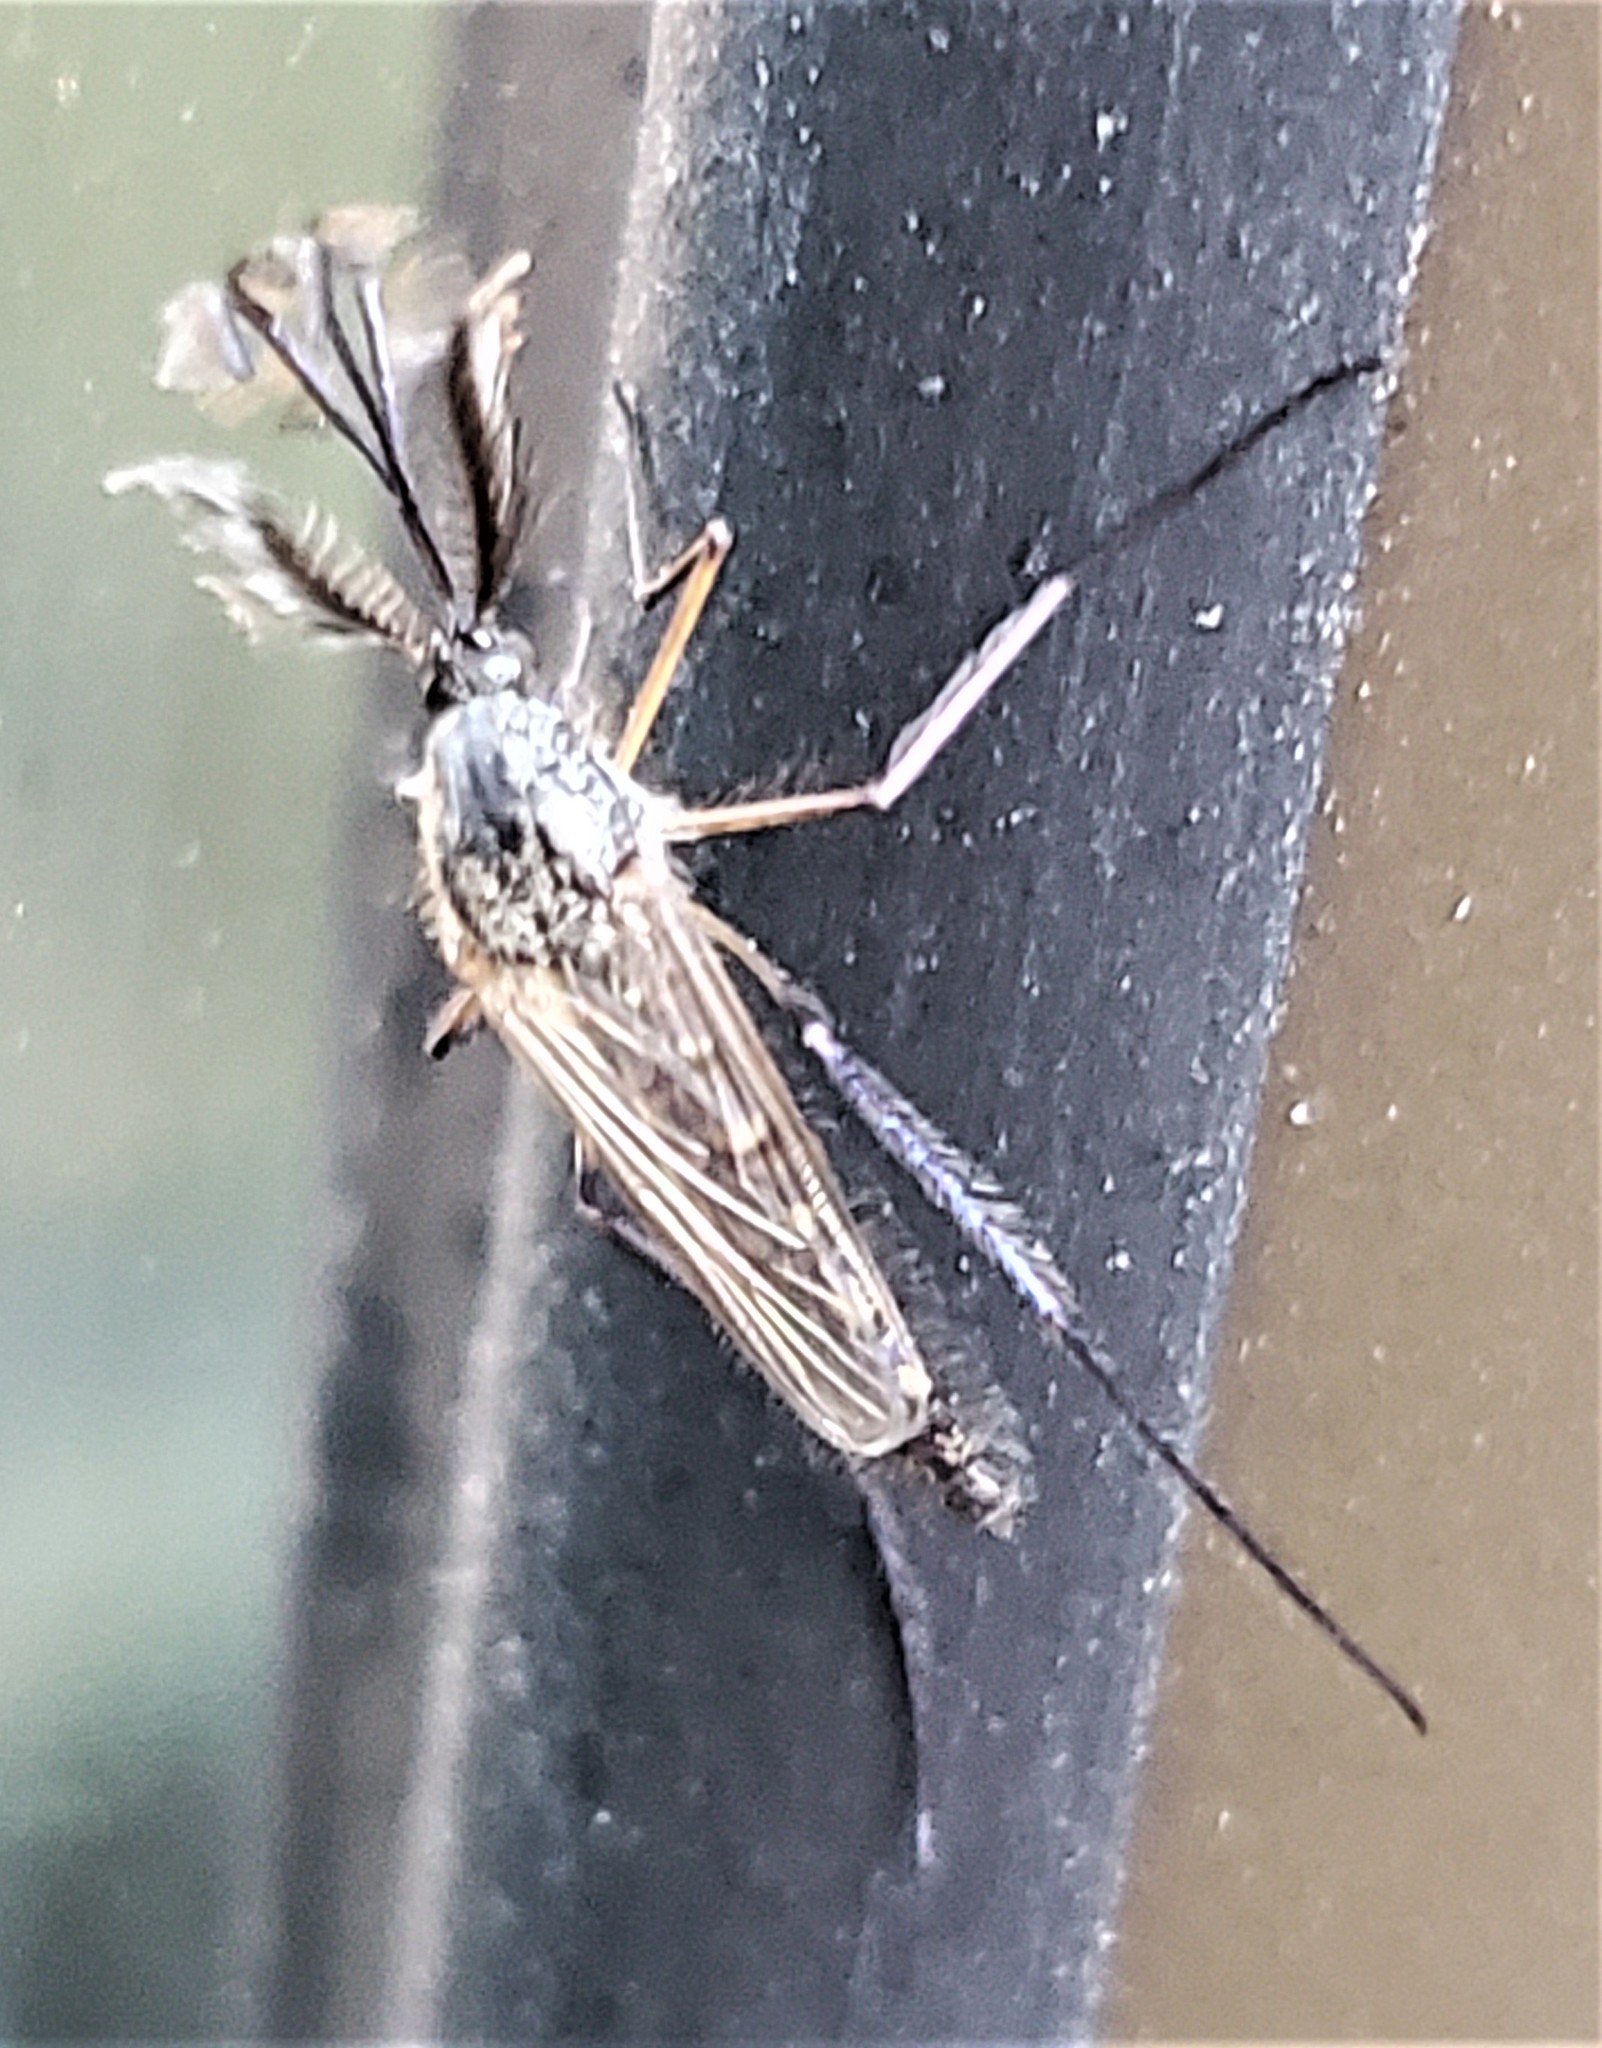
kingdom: Animalia
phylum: Arthropoda
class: Insecta
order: Diptera
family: Culicidae
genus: Psorophora
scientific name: Psorophora cyanescens
